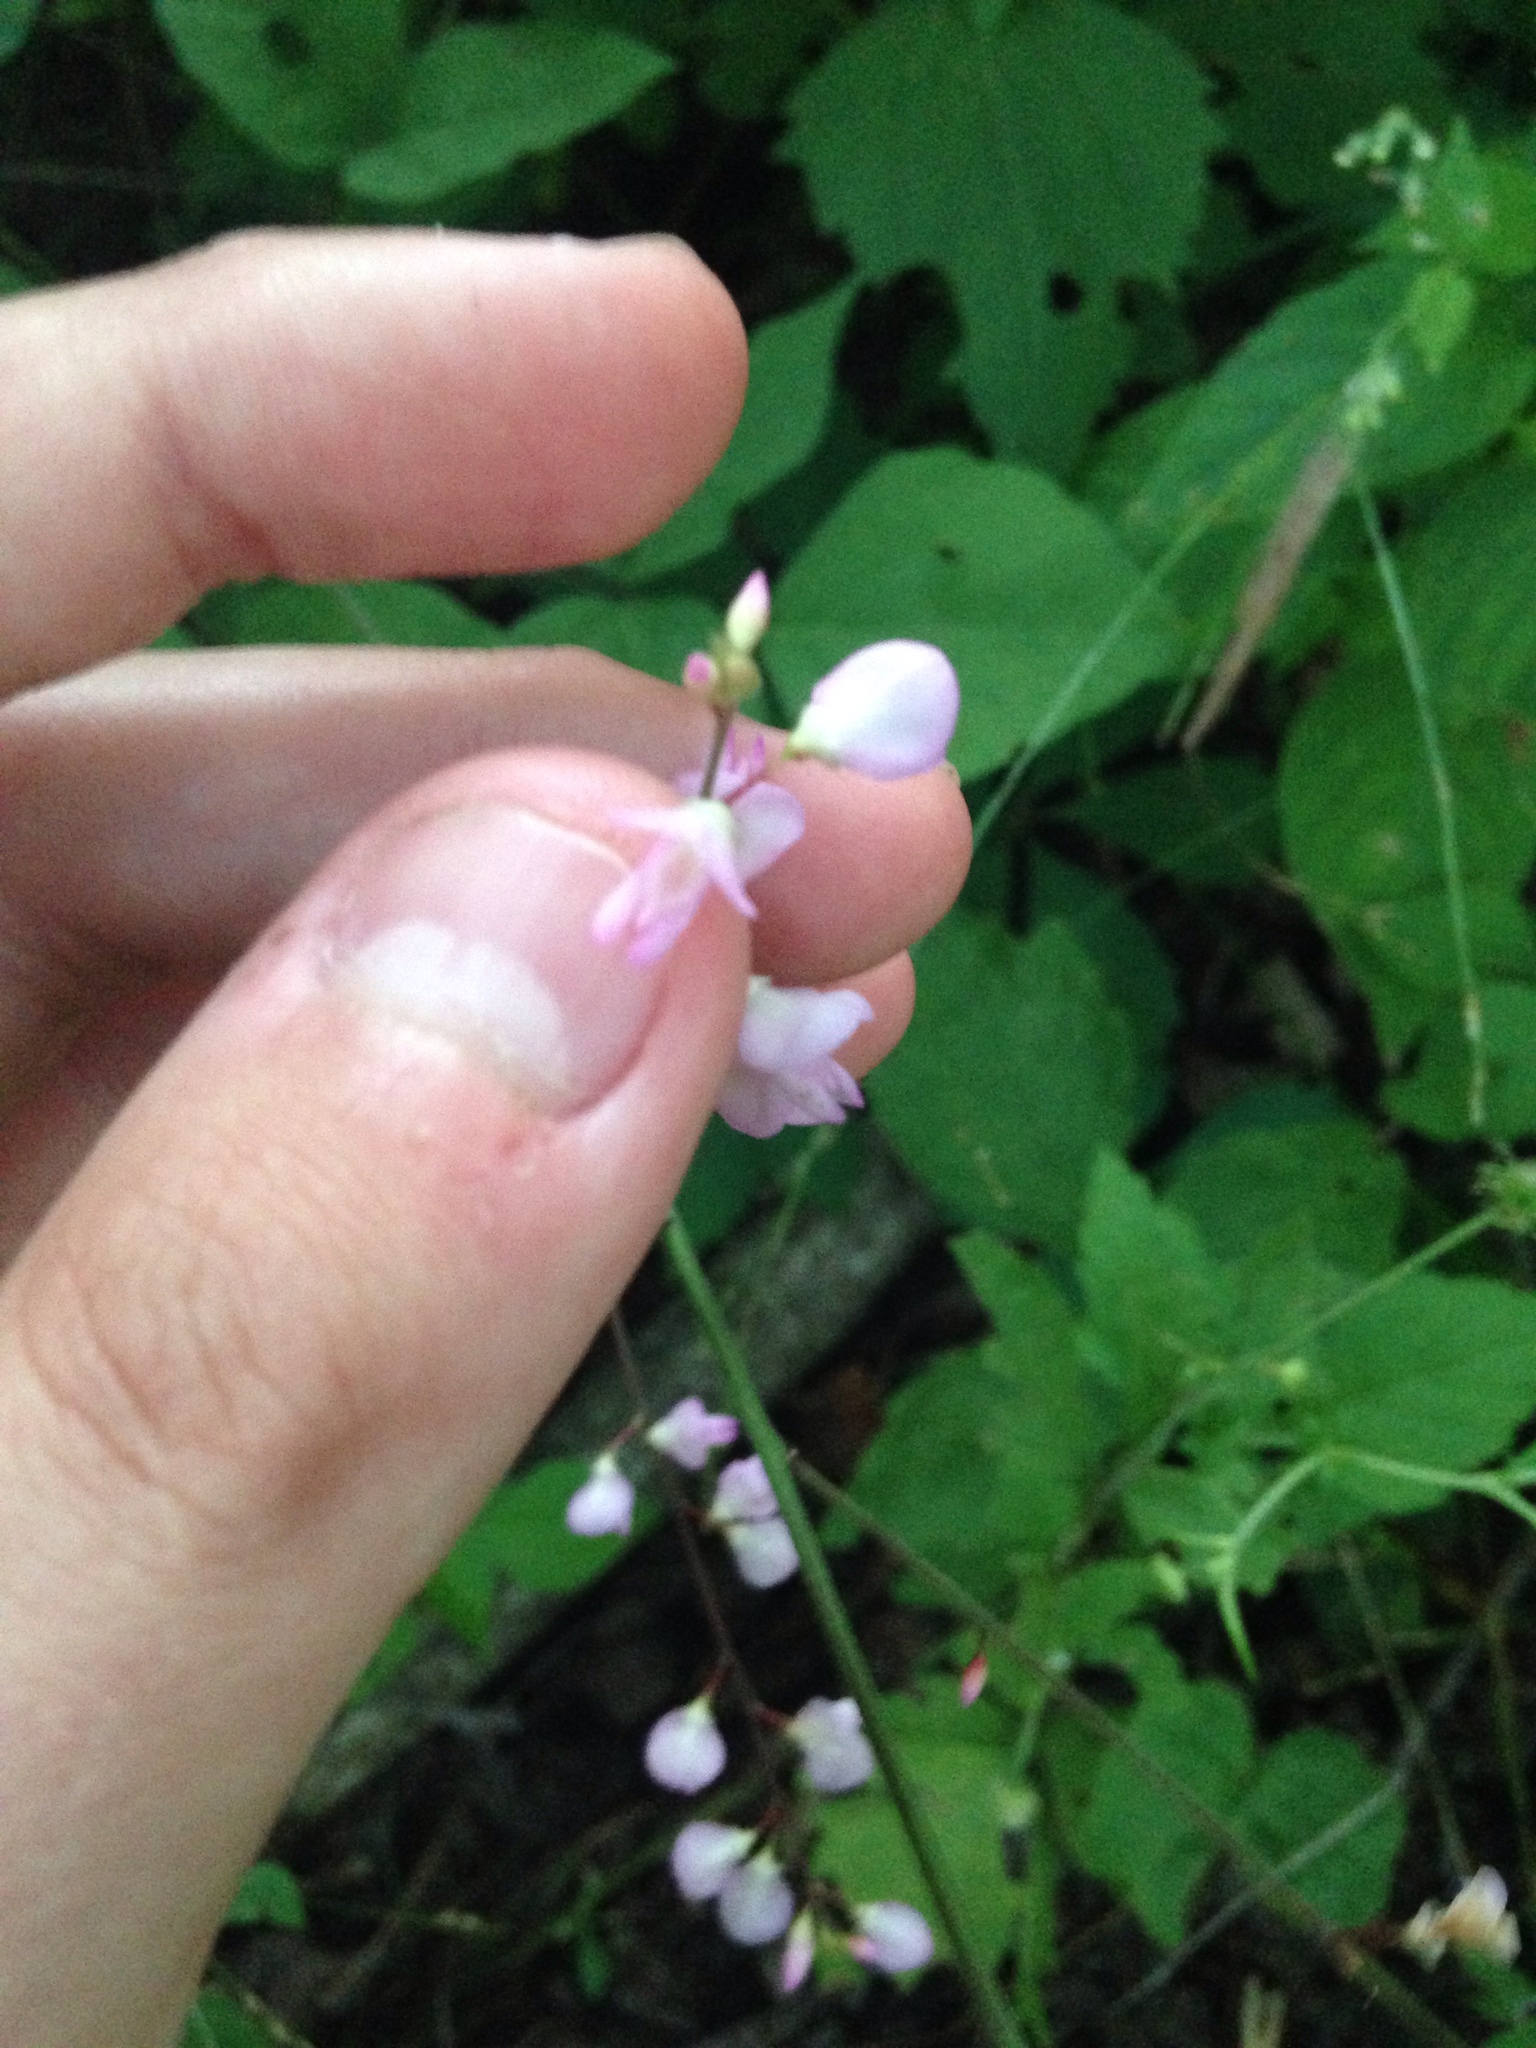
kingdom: Plantae
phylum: Tracheophyta
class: Magnoliopsida
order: Fabales
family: Fabaceae
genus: Hylodesmum
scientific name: Hylodesmum glutinosum
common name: Clustered-leaved tick-trefoil
